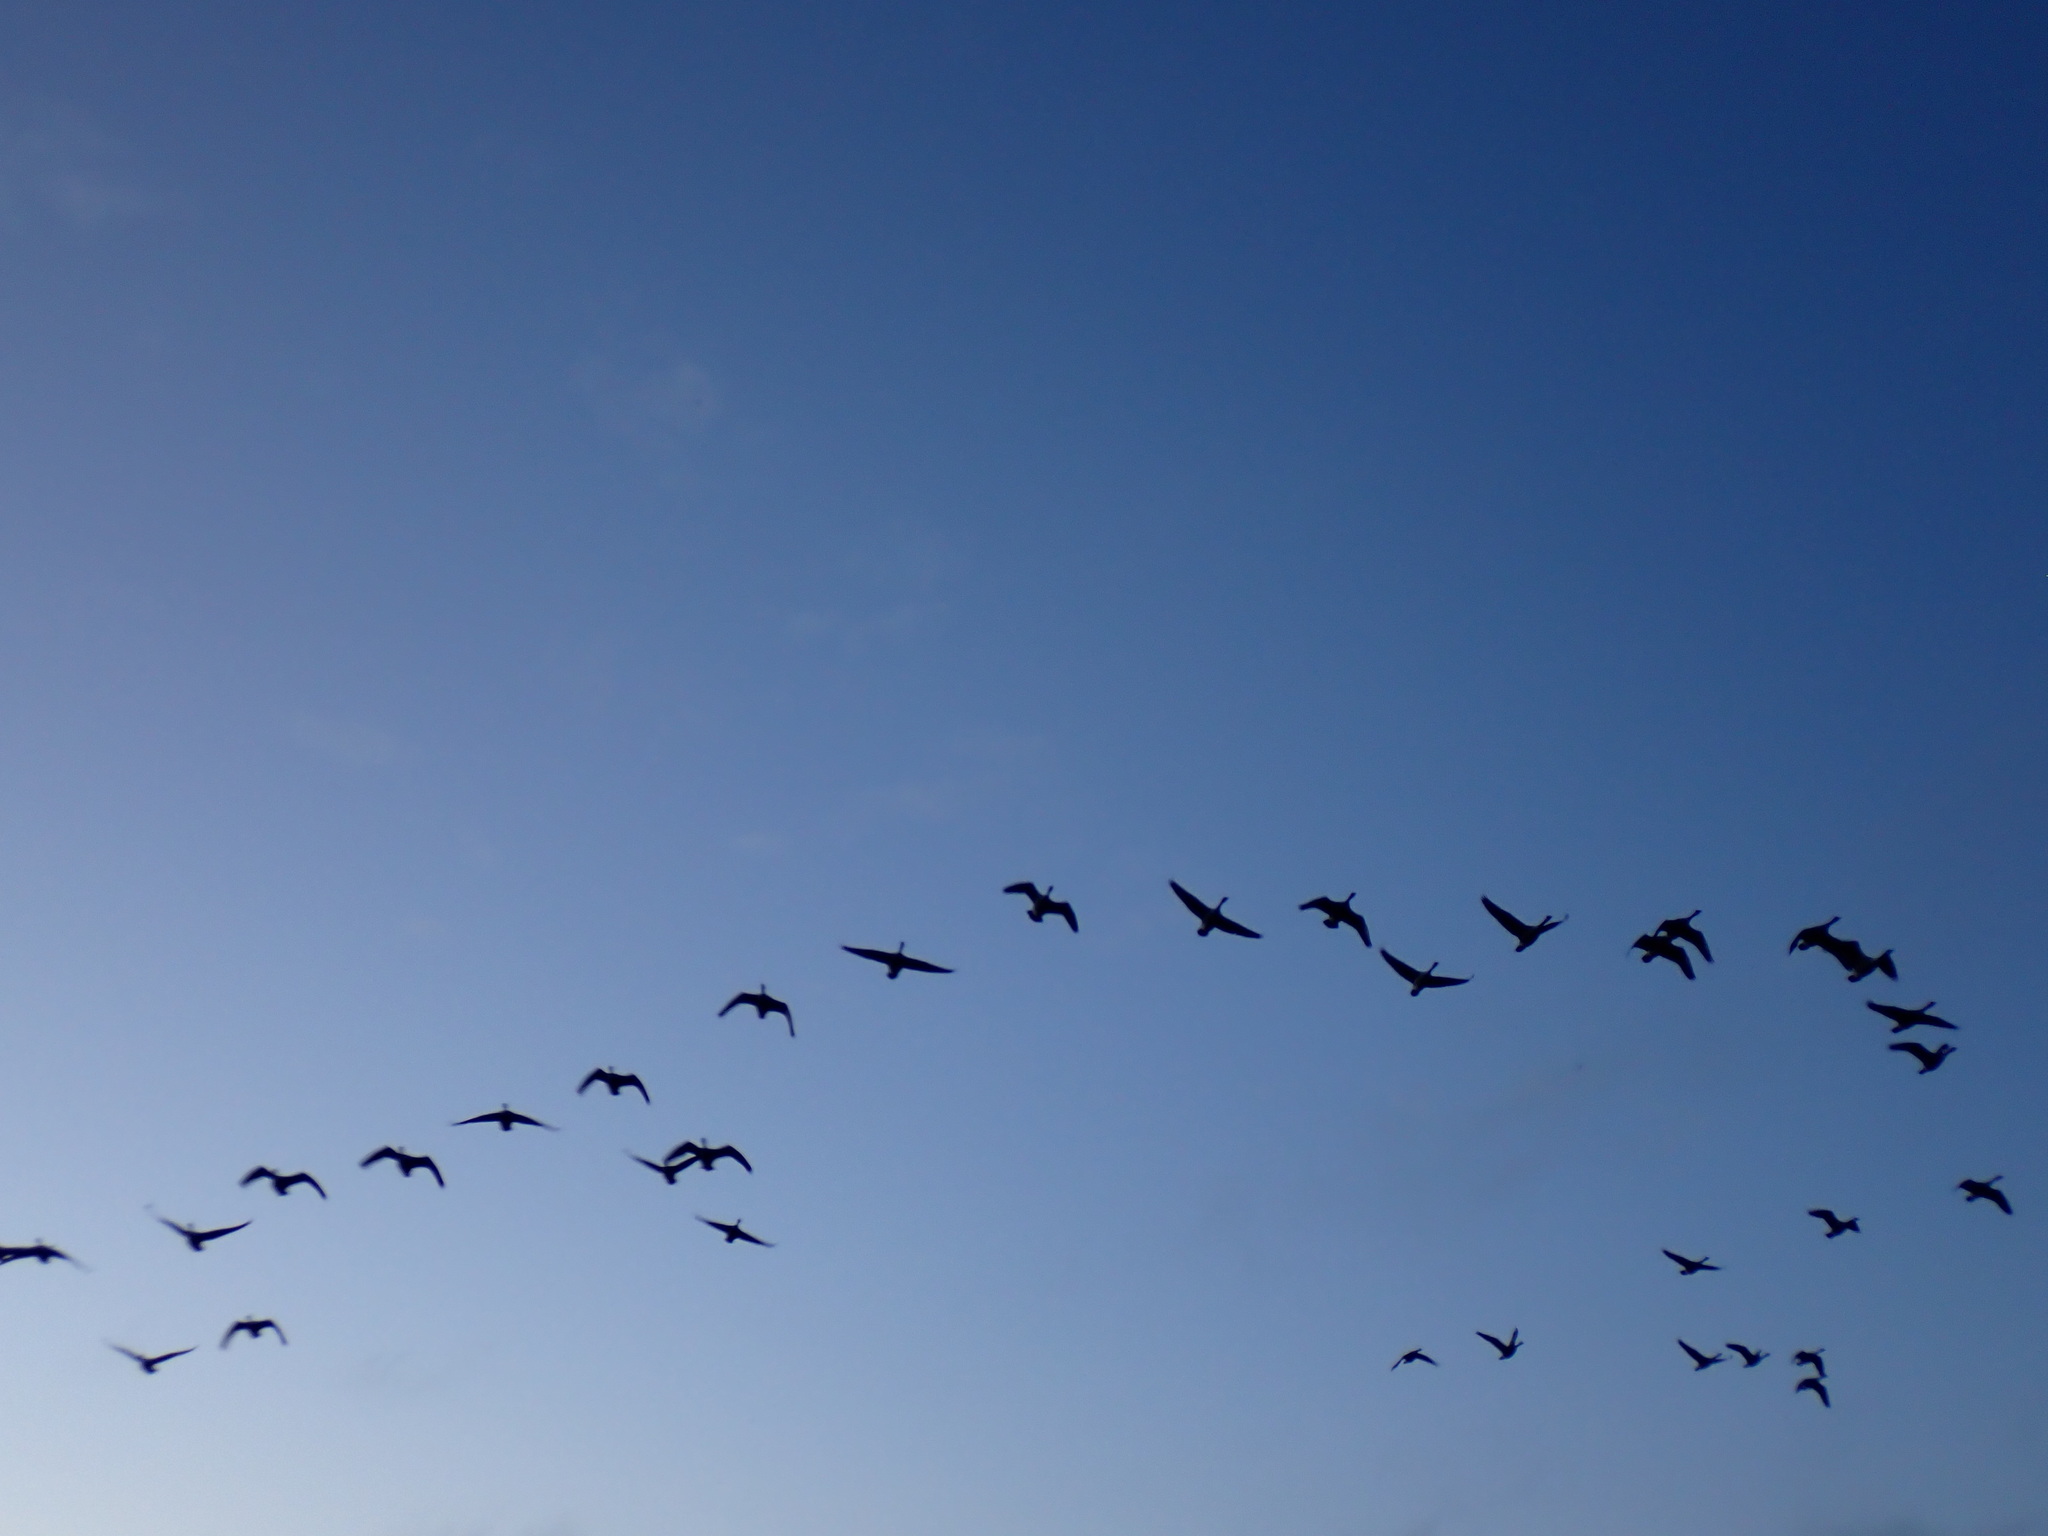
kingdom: Animalia
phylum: Chordata
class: Aves
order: Anseriformes
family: Anatidae
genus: Branta
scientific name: Branta canadensis
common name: Canada goose
